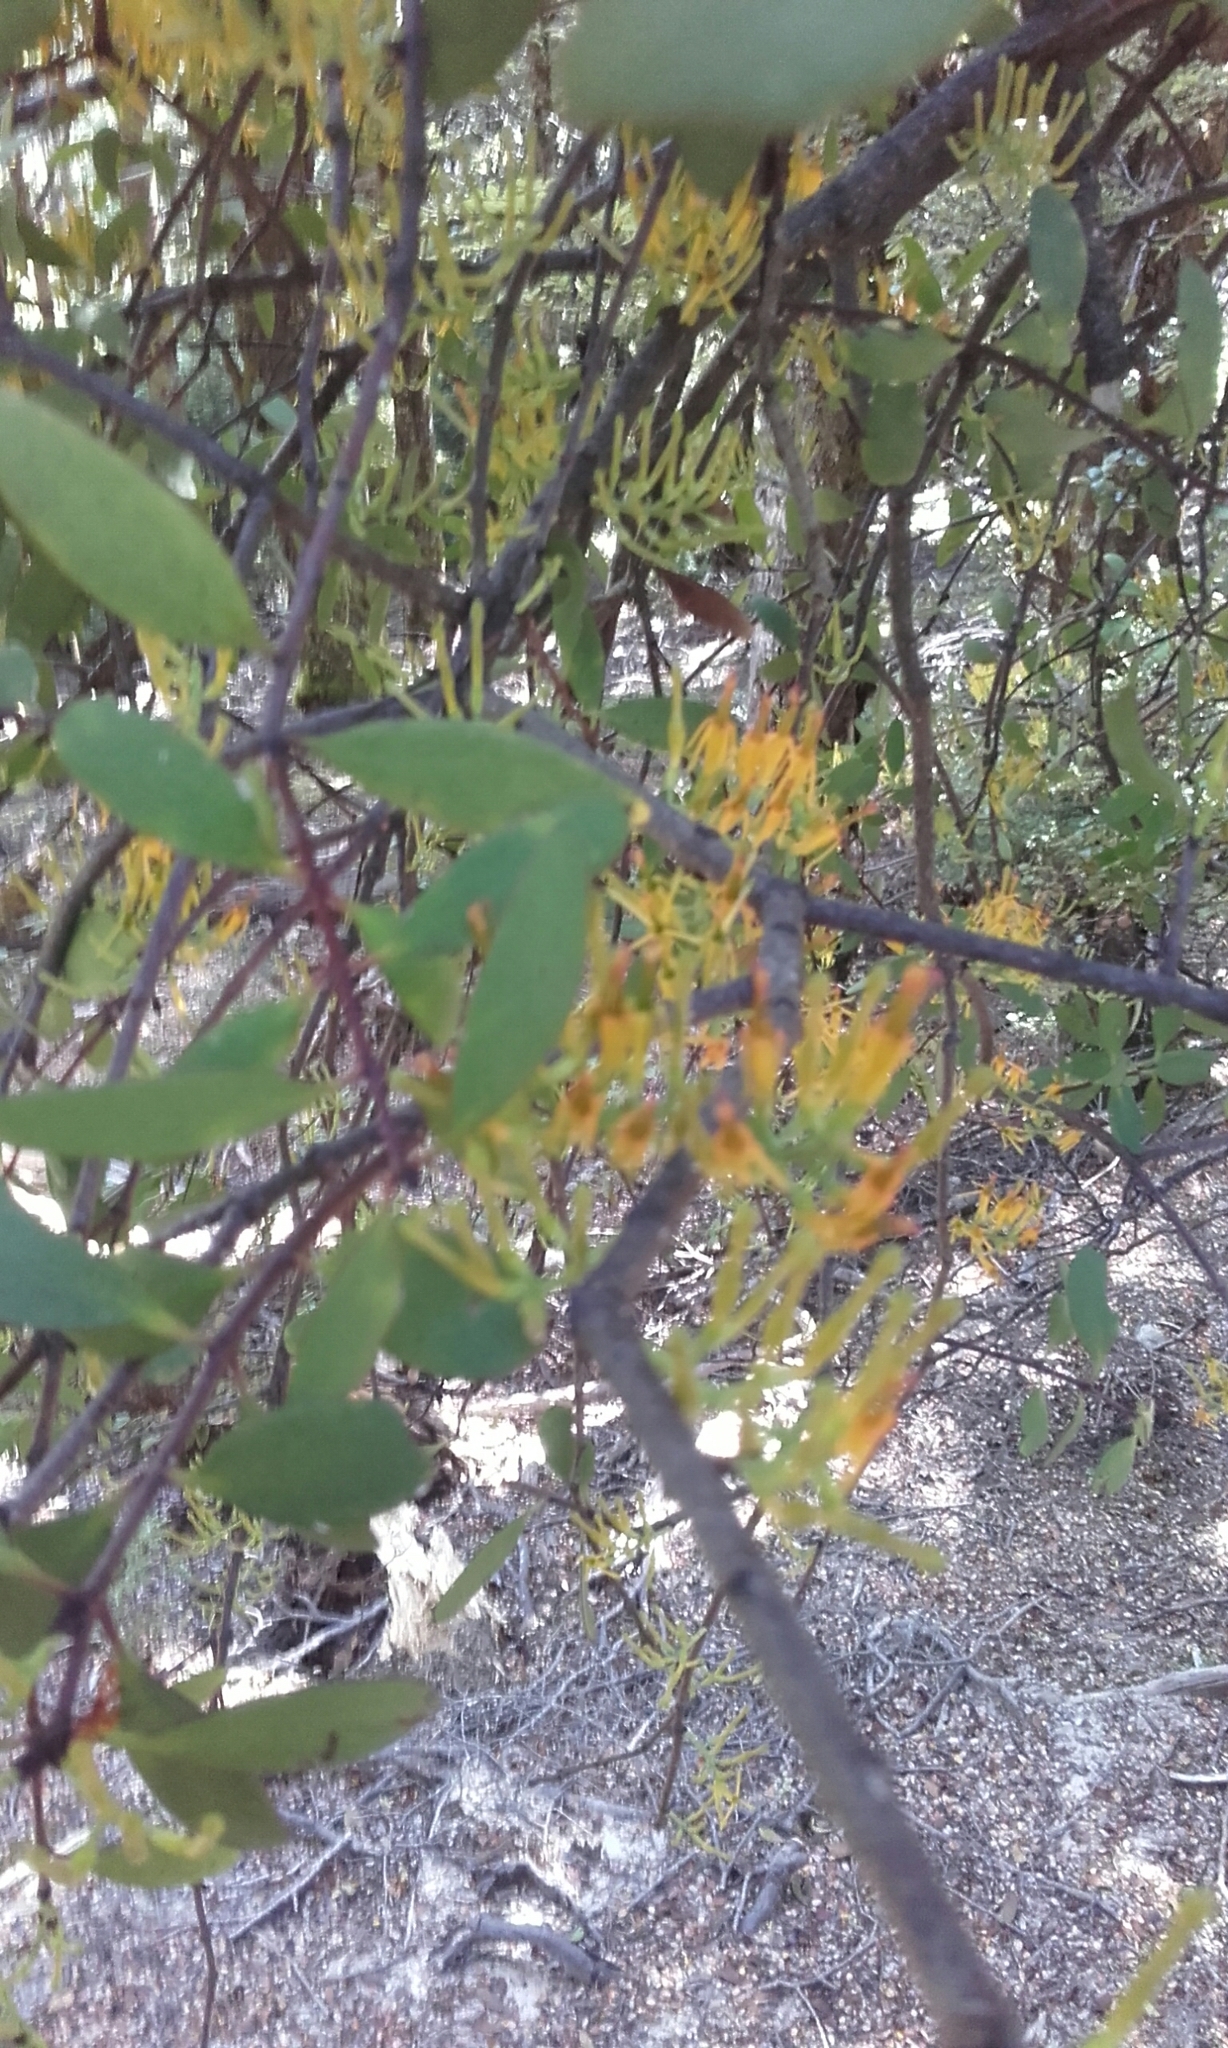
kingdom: Plantae
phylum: Tracheophyta
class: Magnoliopsida
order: Santalales
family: Loranthaceae
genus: Alepis
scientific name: Alepis flavida
